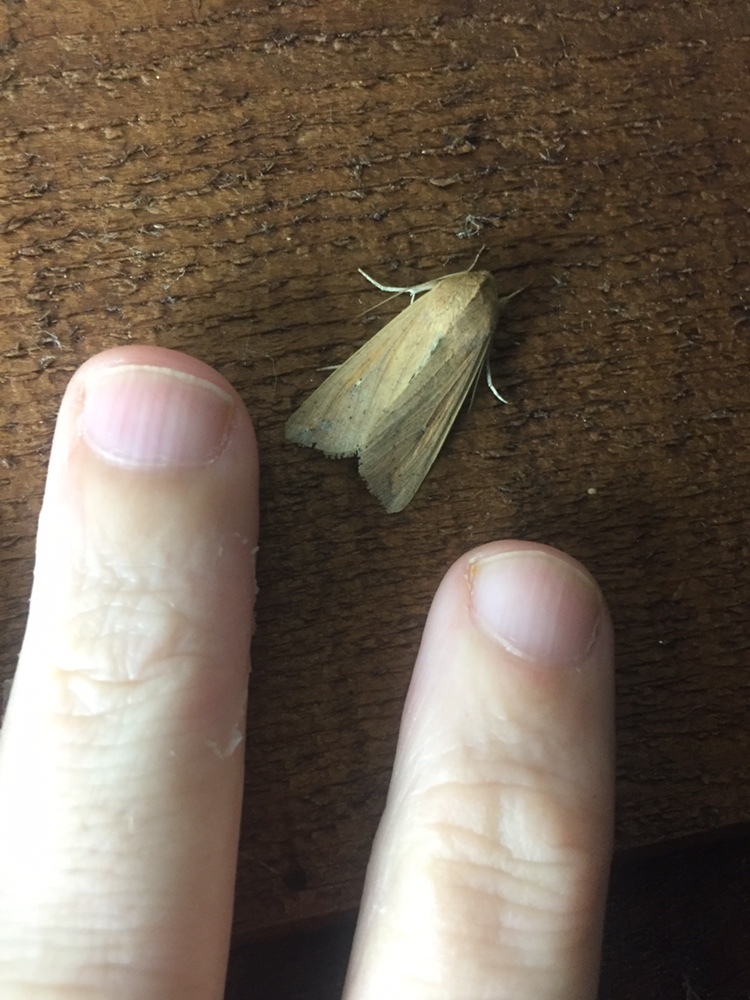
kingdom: Animalia
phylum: Arthropoda
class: Insecta
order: Lepidoptera
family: Noctuidae
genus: Mythimna
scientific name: Mythimna separata
